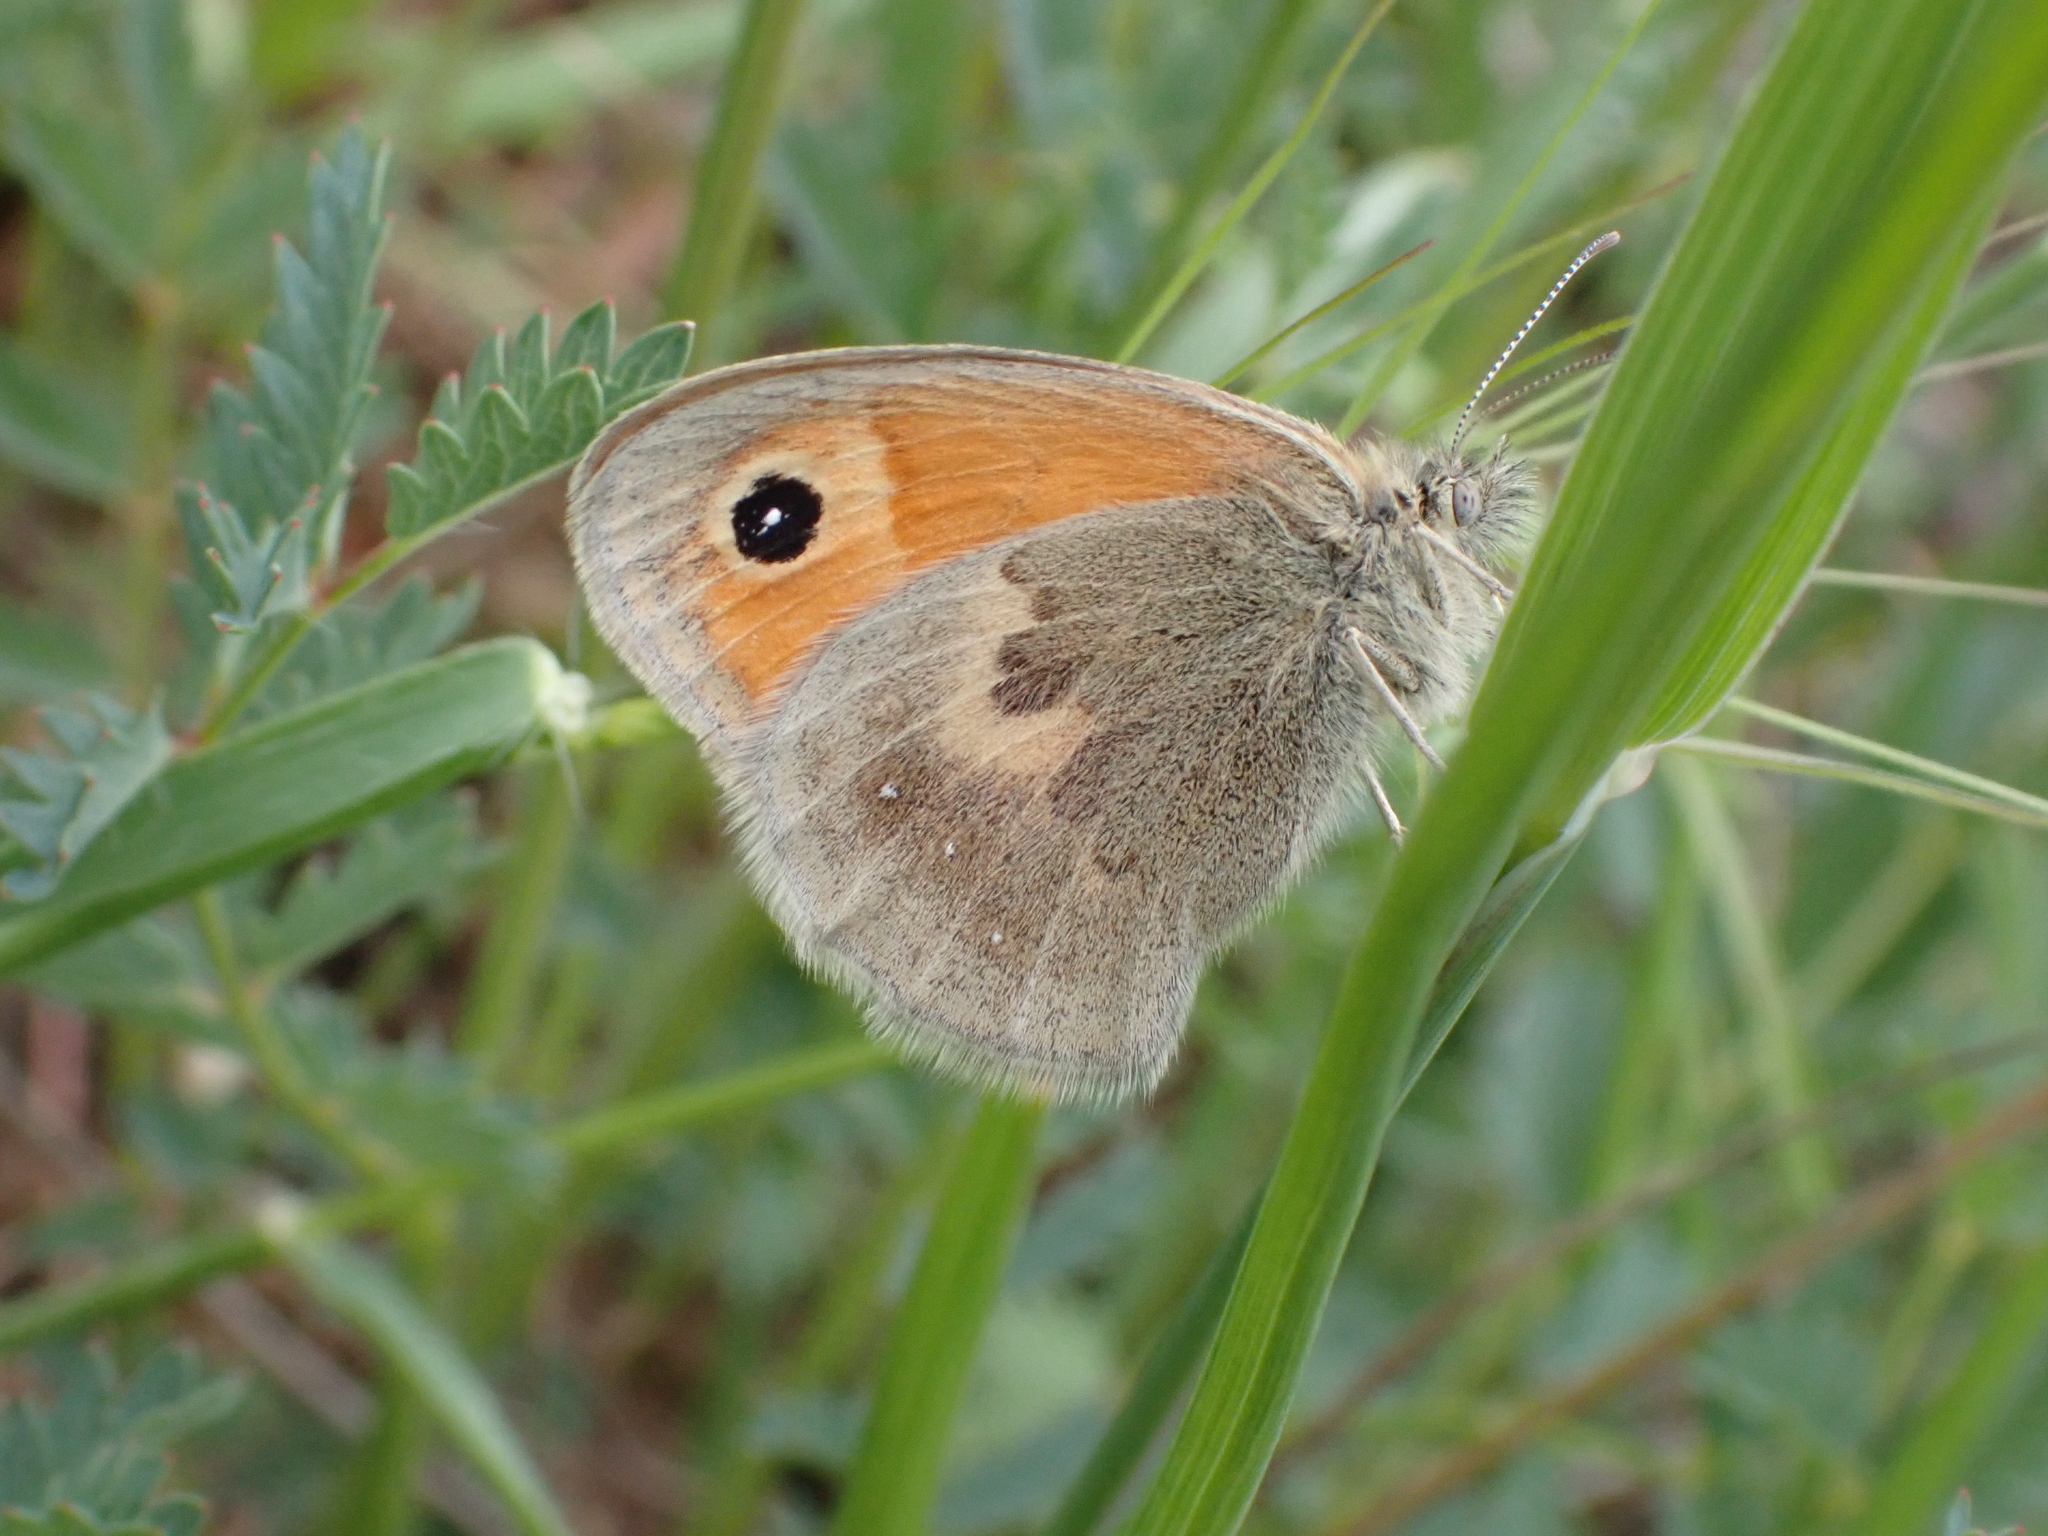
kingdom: Animalia
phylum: Arthropoda
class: Insecta
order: Lepidoptera
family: Nymphalidae
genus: Coenonympha
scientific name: Coenonympha pamphilus
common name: Small heath
